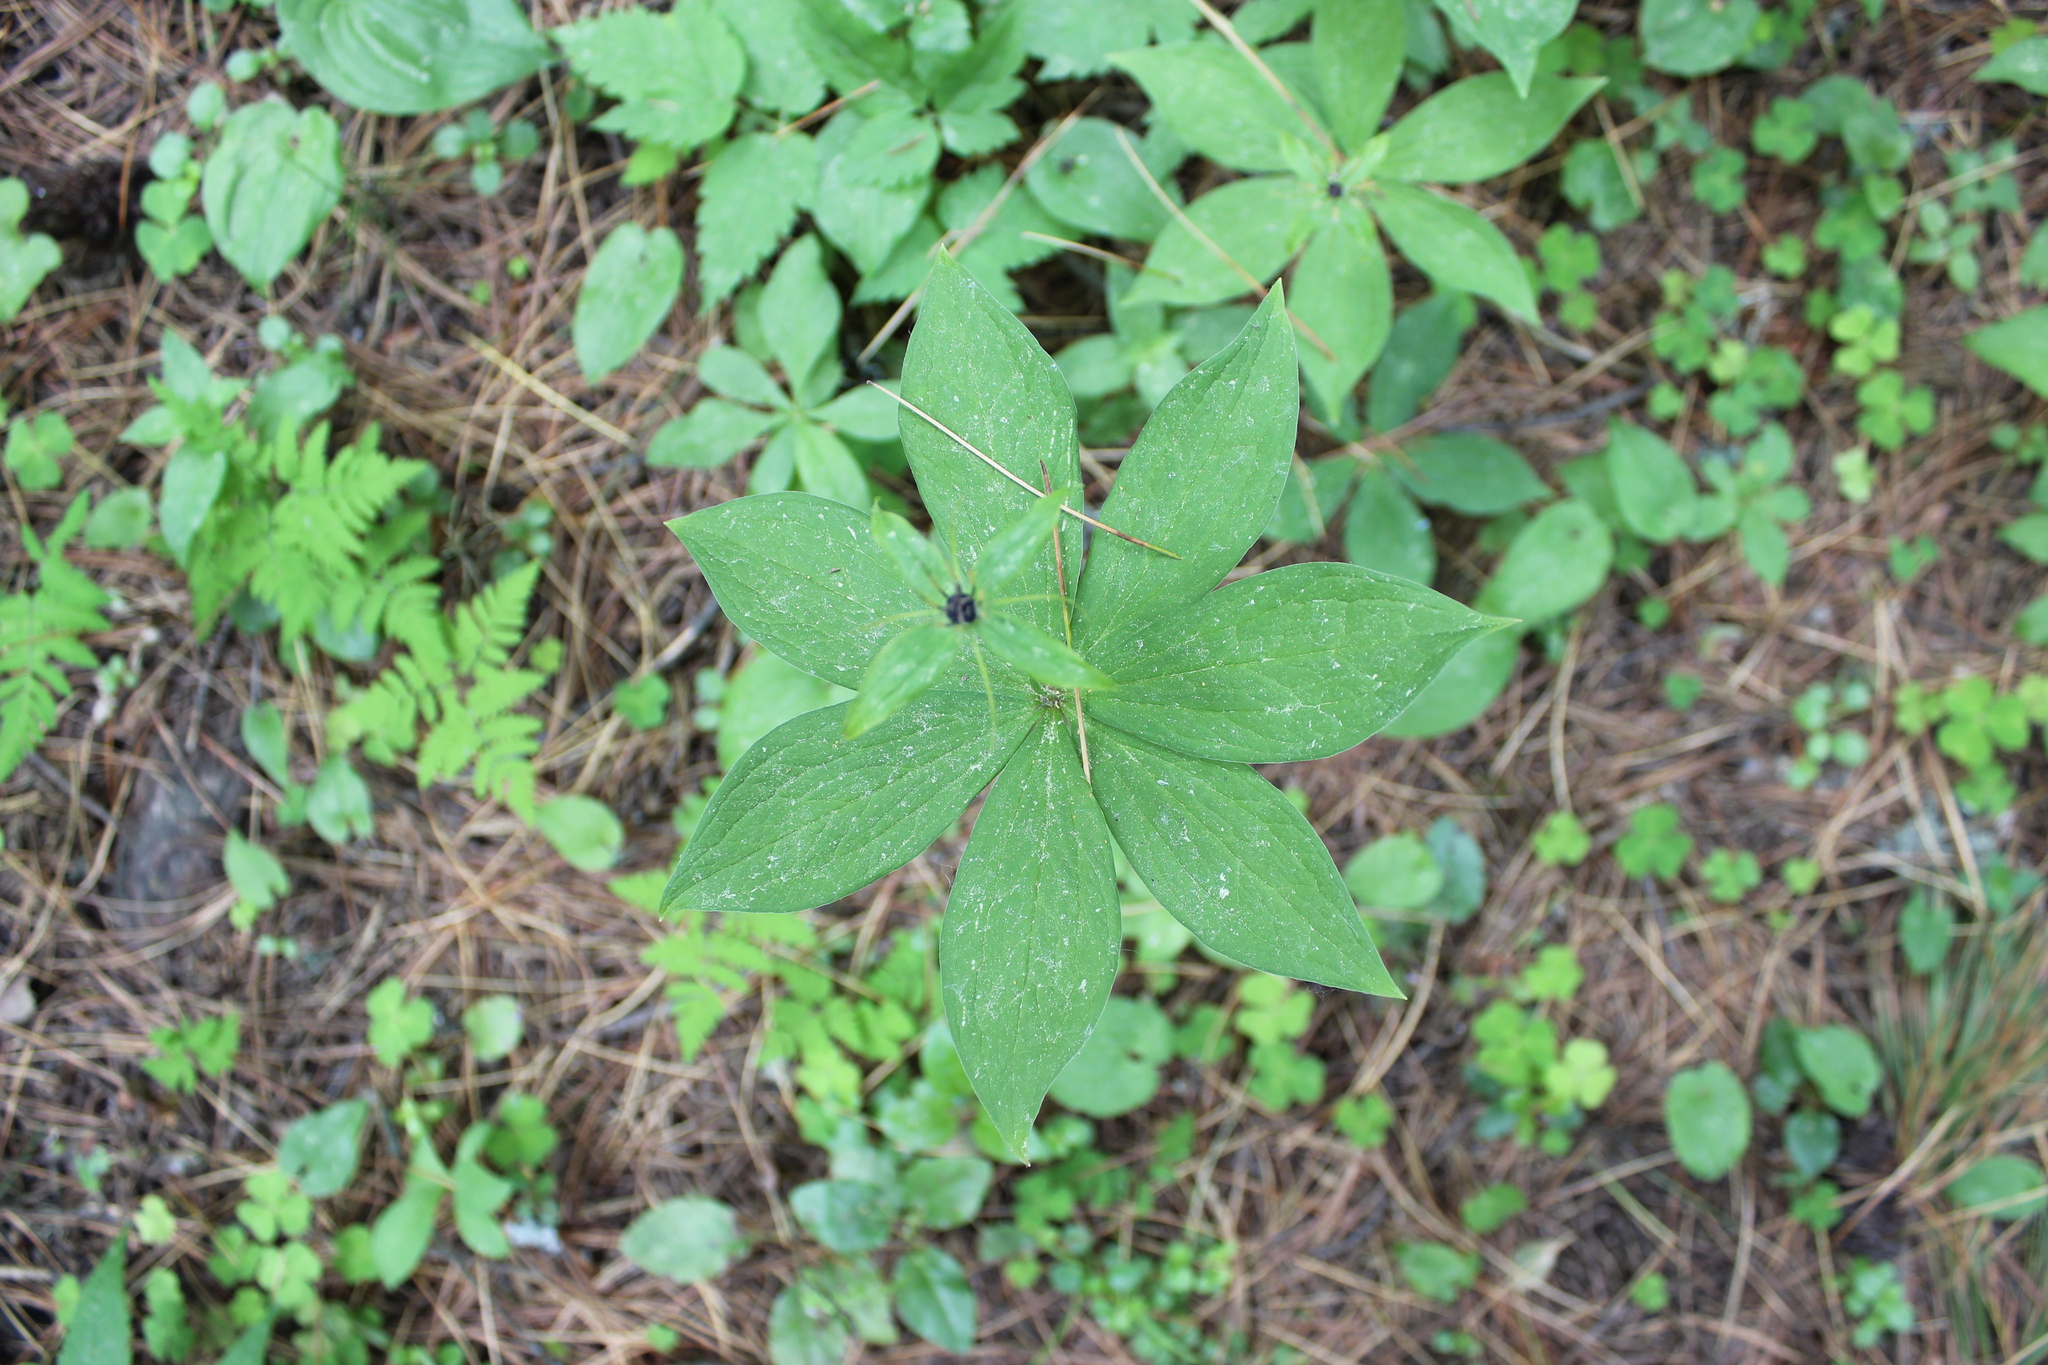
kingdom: Plantae
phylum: Tracheophyta
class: Liliopsida
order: Liliales
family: Melanthiaceae
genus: Paris
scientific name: Paris quadrifolia
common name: Herb-paris
